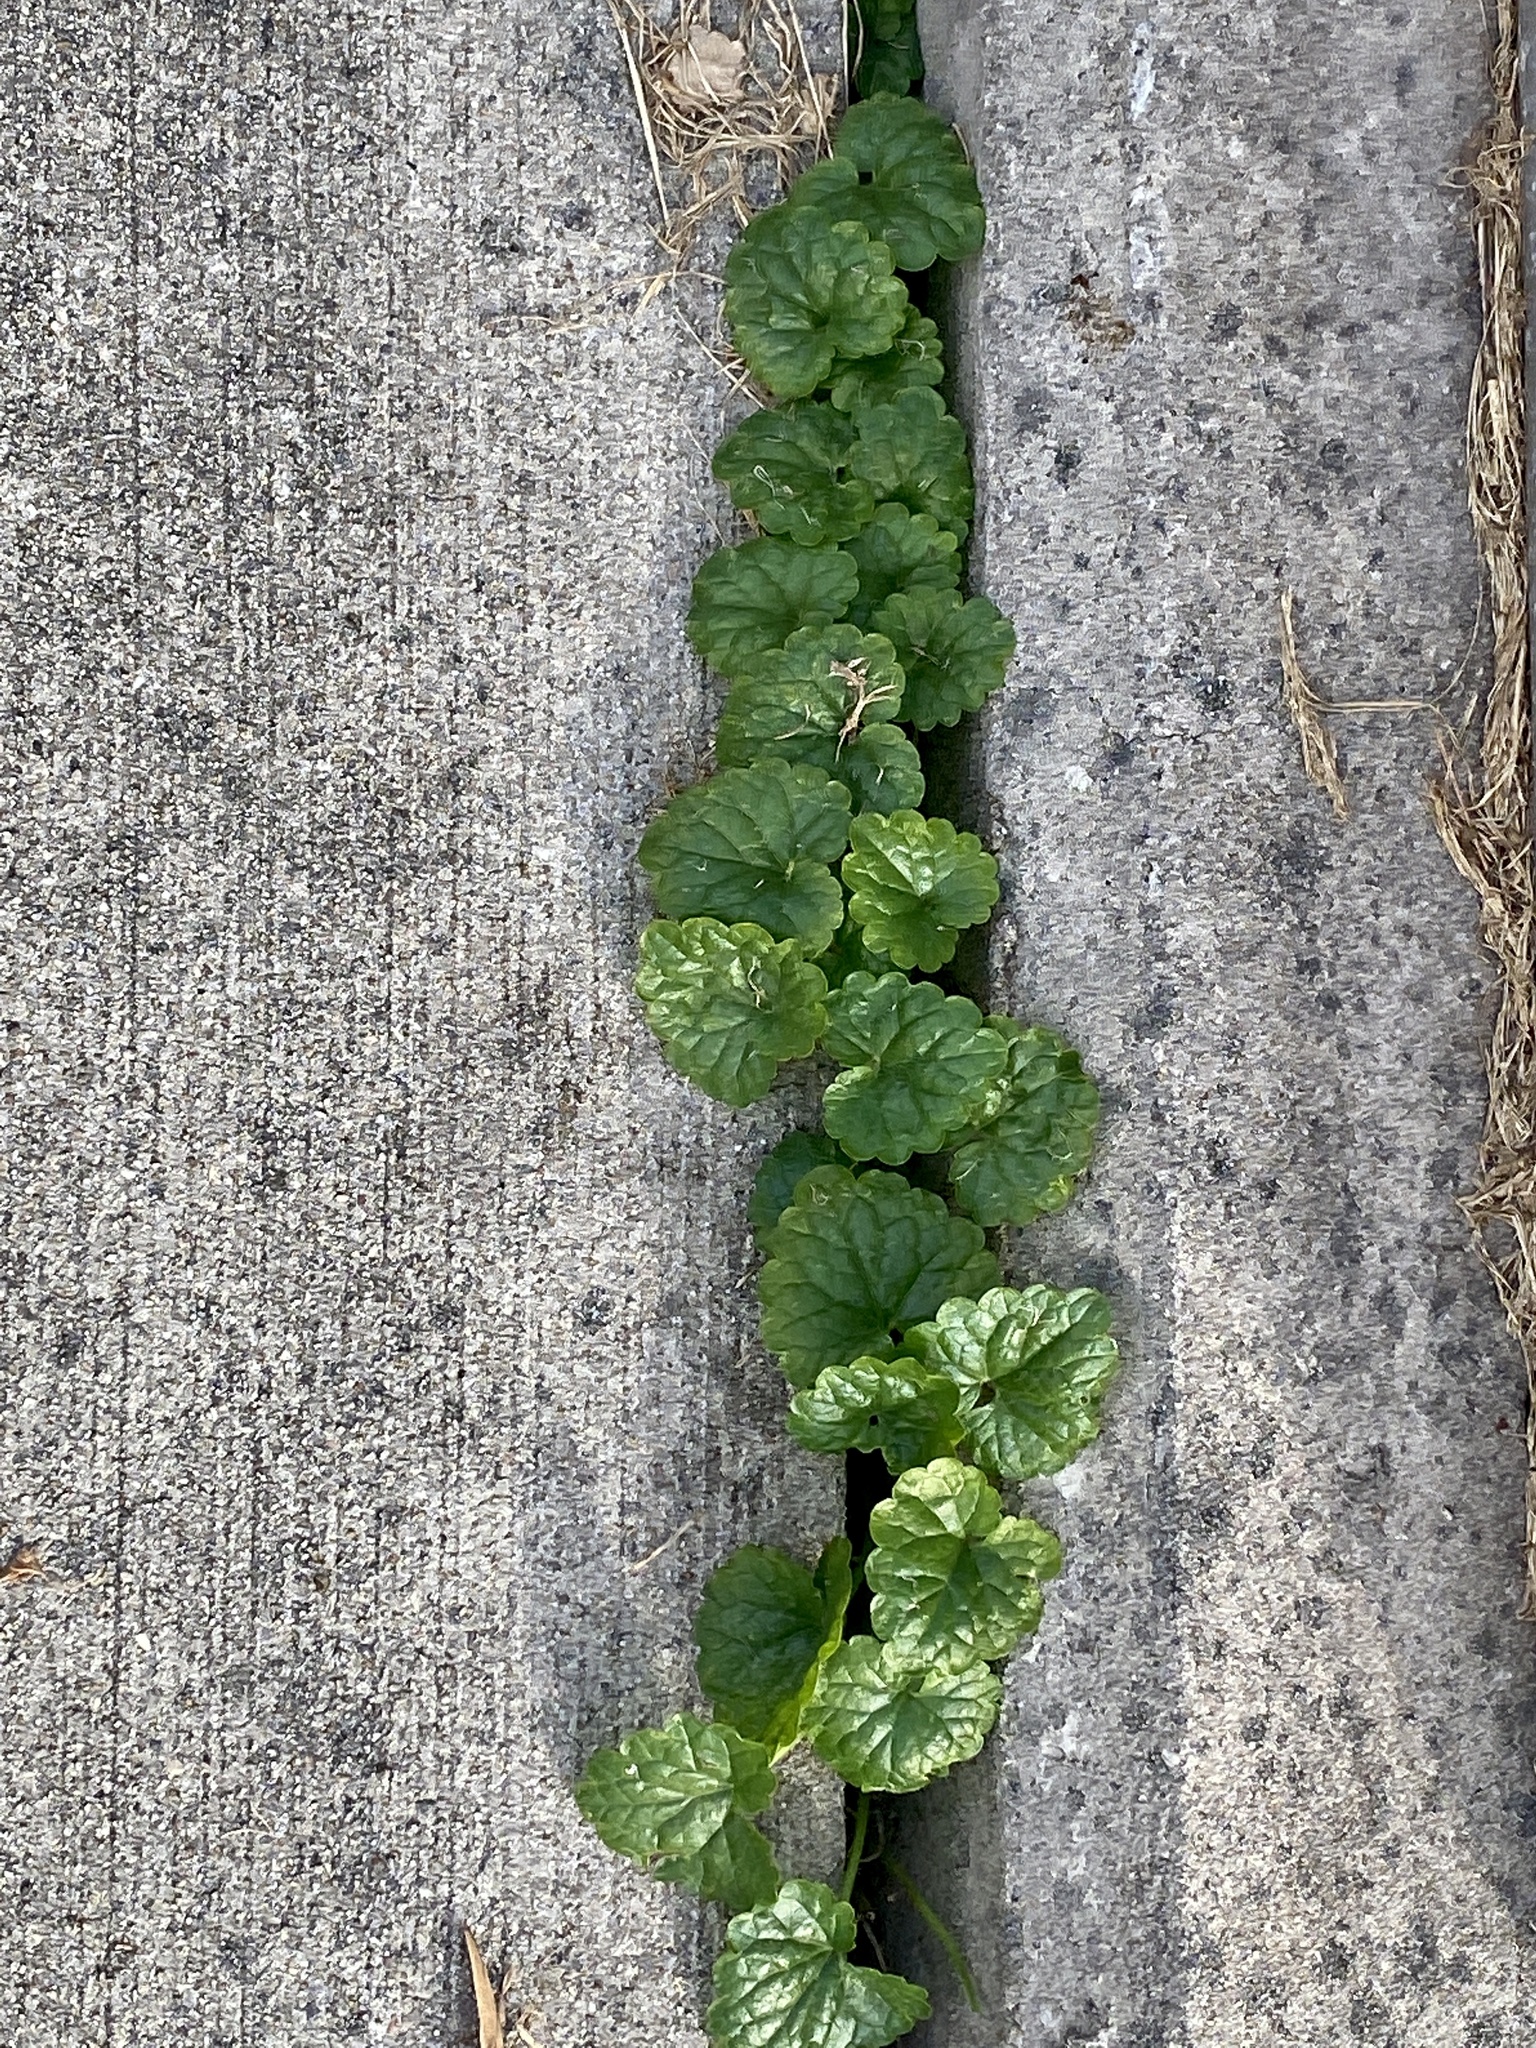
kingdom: Plantae
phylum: Tracheophyta
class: Magnoliopsida
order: Lamiales
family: Lamiaceae
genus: Glechoma
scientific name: Glechoma hederacea
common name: Ground ivy
